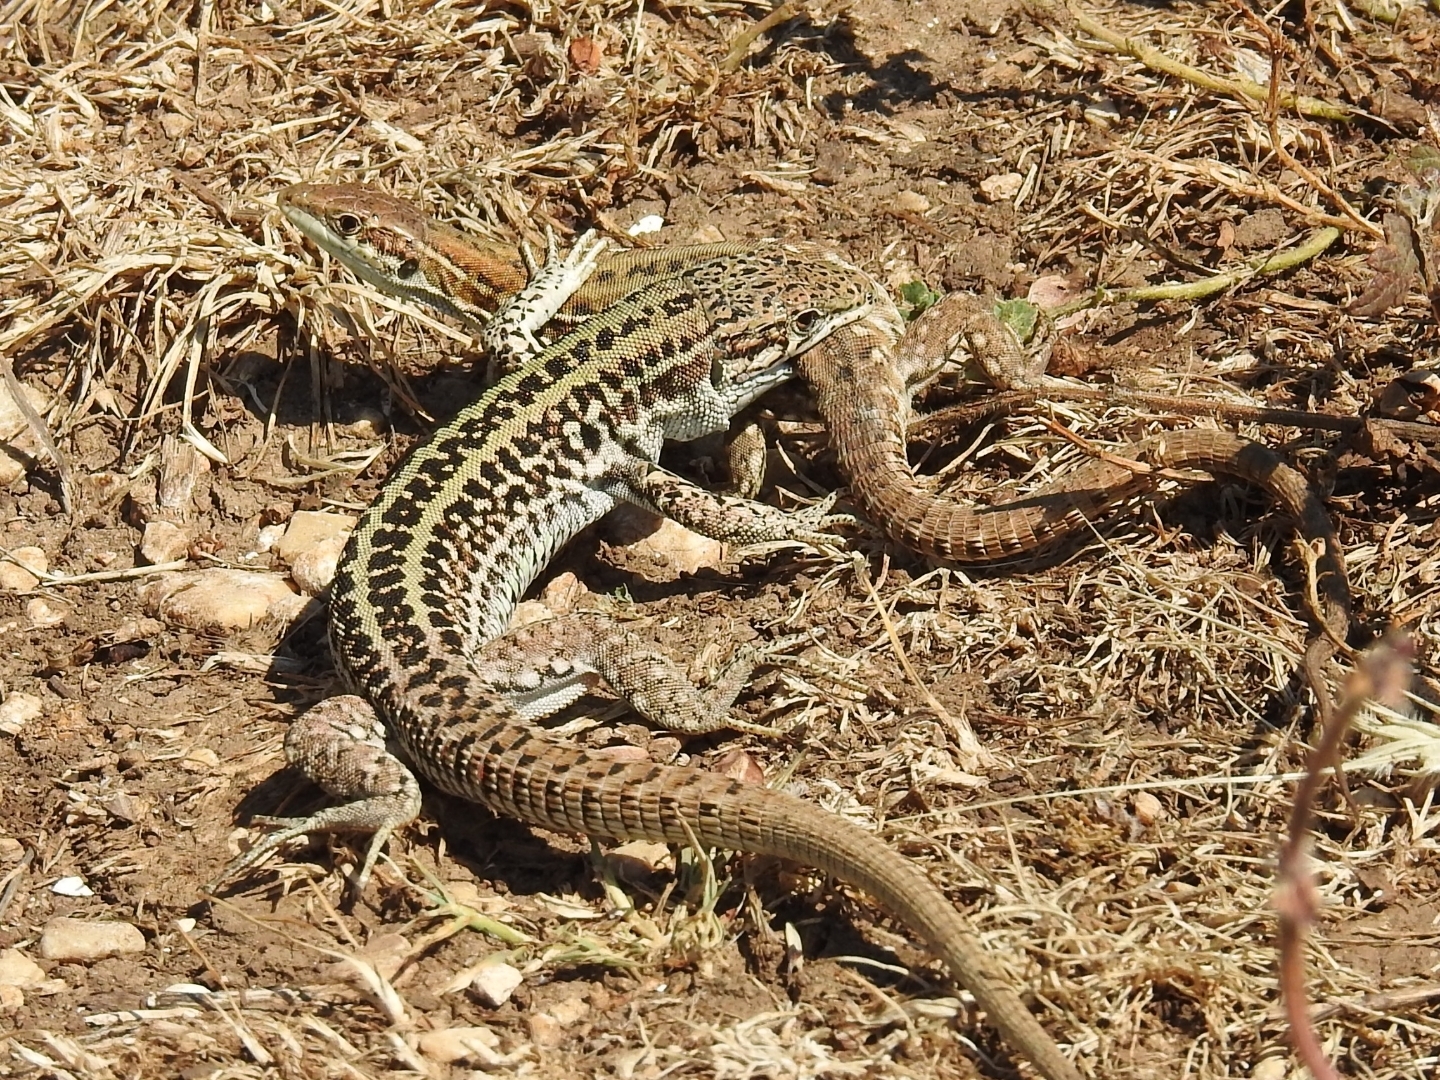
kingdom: Animalia
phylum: Chordata
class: Squamata
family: Lacertidae
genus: Podarcis
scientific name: Podarcis siculus
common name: Italian wall lizard
